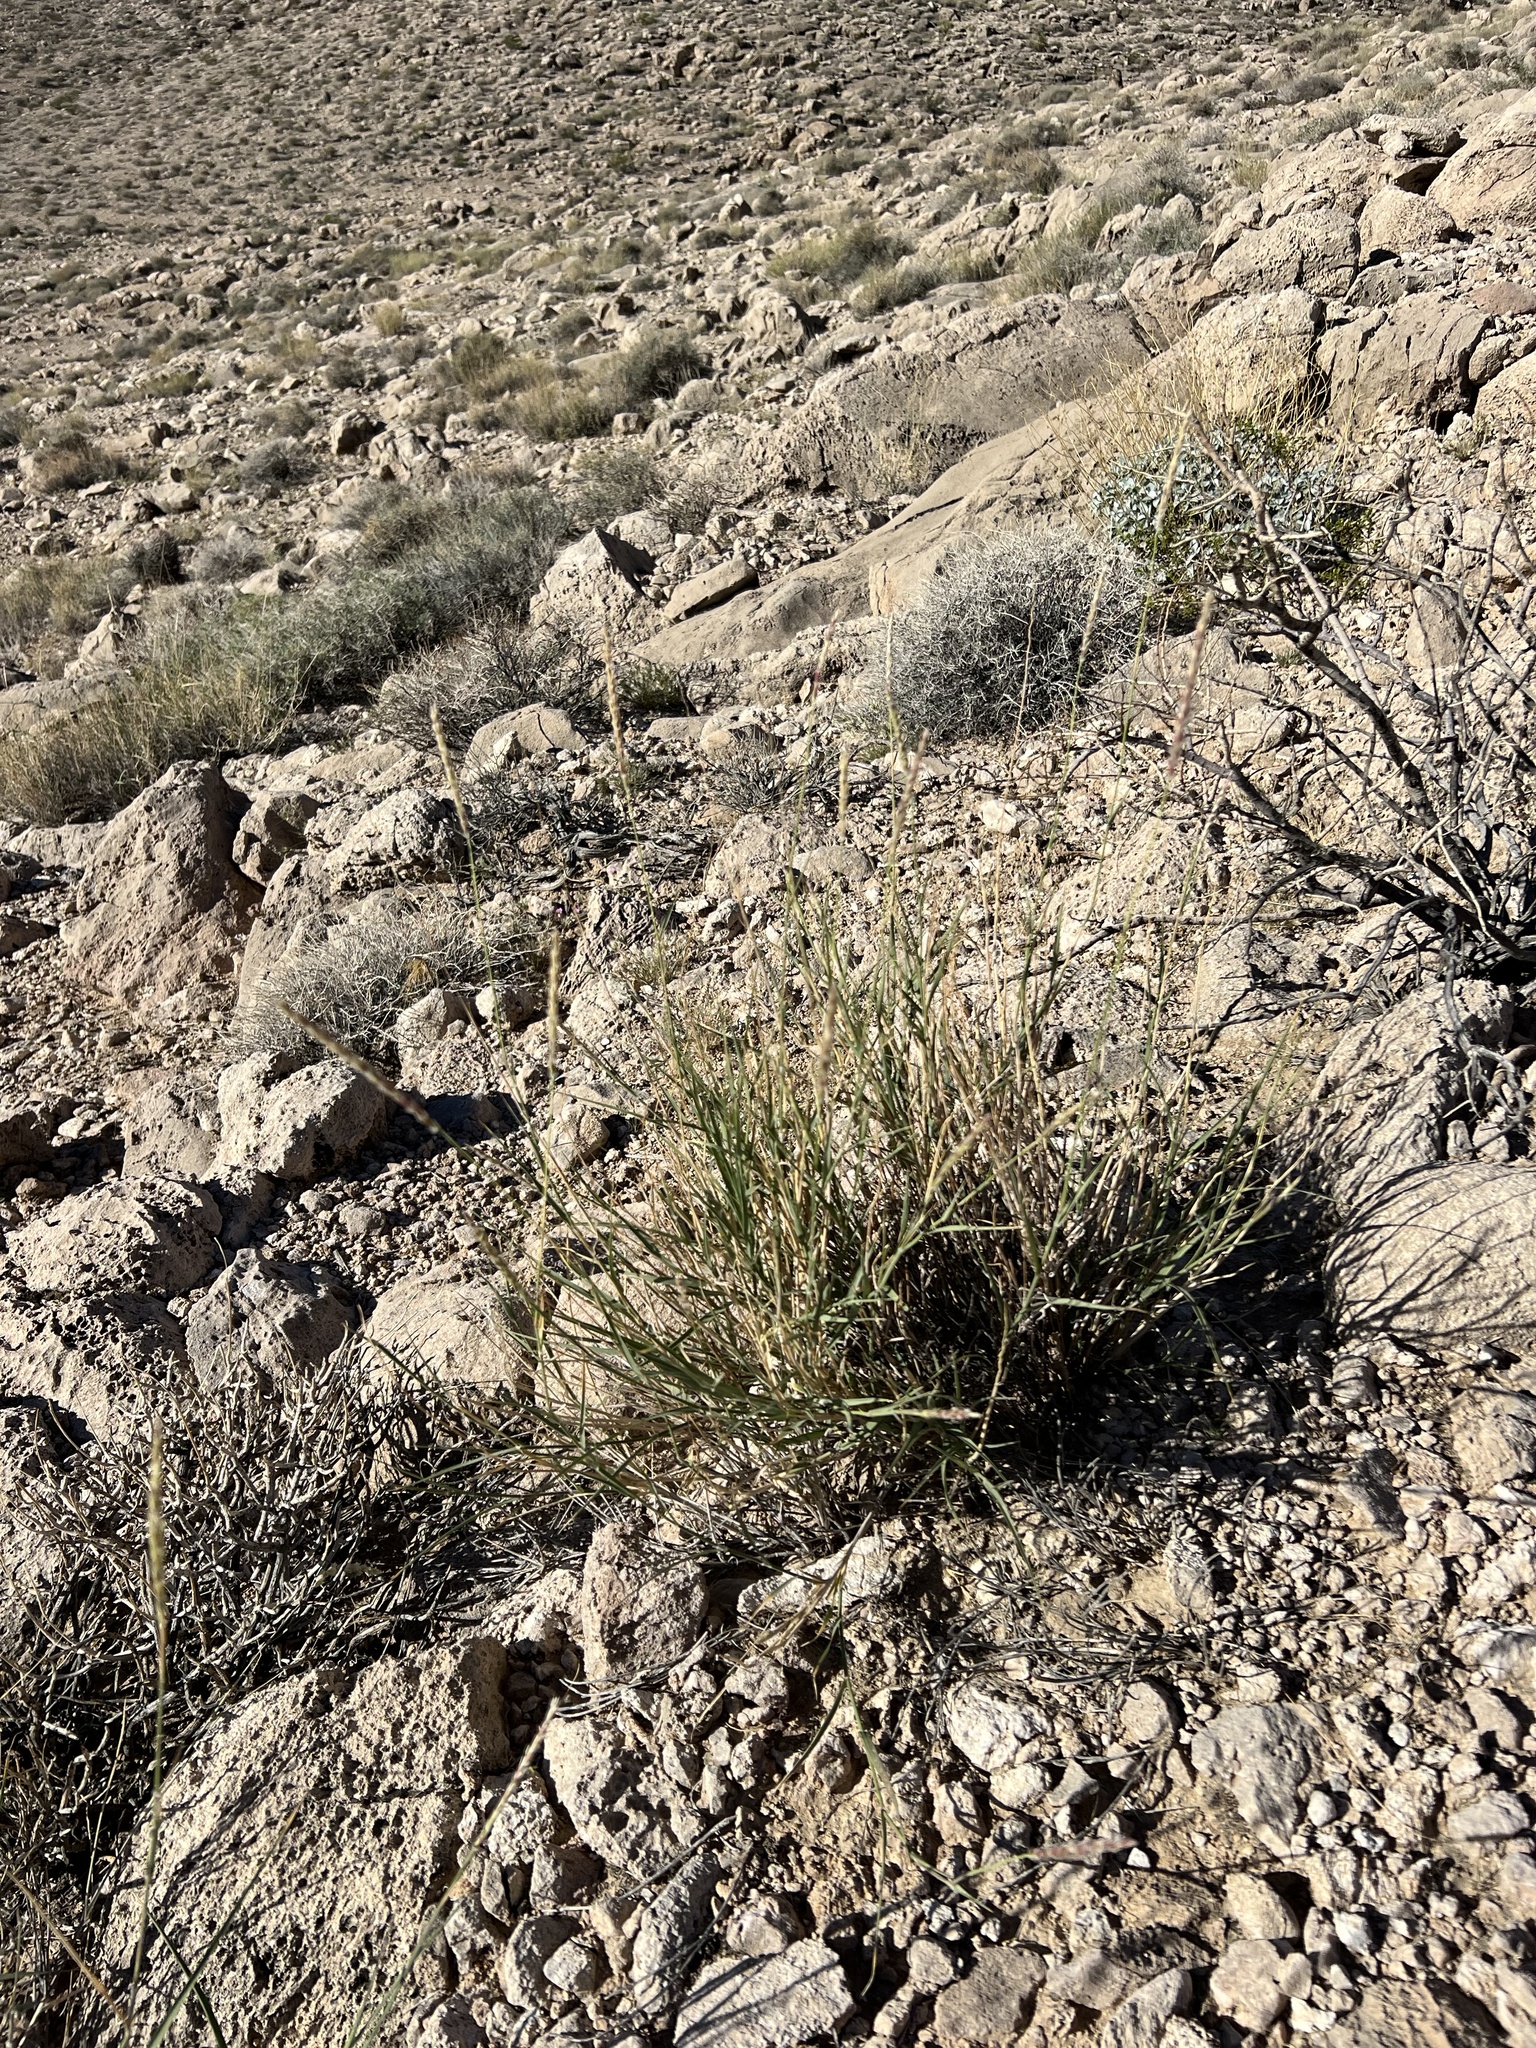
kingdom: Plantae
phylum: Tracheophyta
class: Liliopsida
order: Poales
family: Poaceae
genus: Hilaria
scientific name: Hilaria rigida
